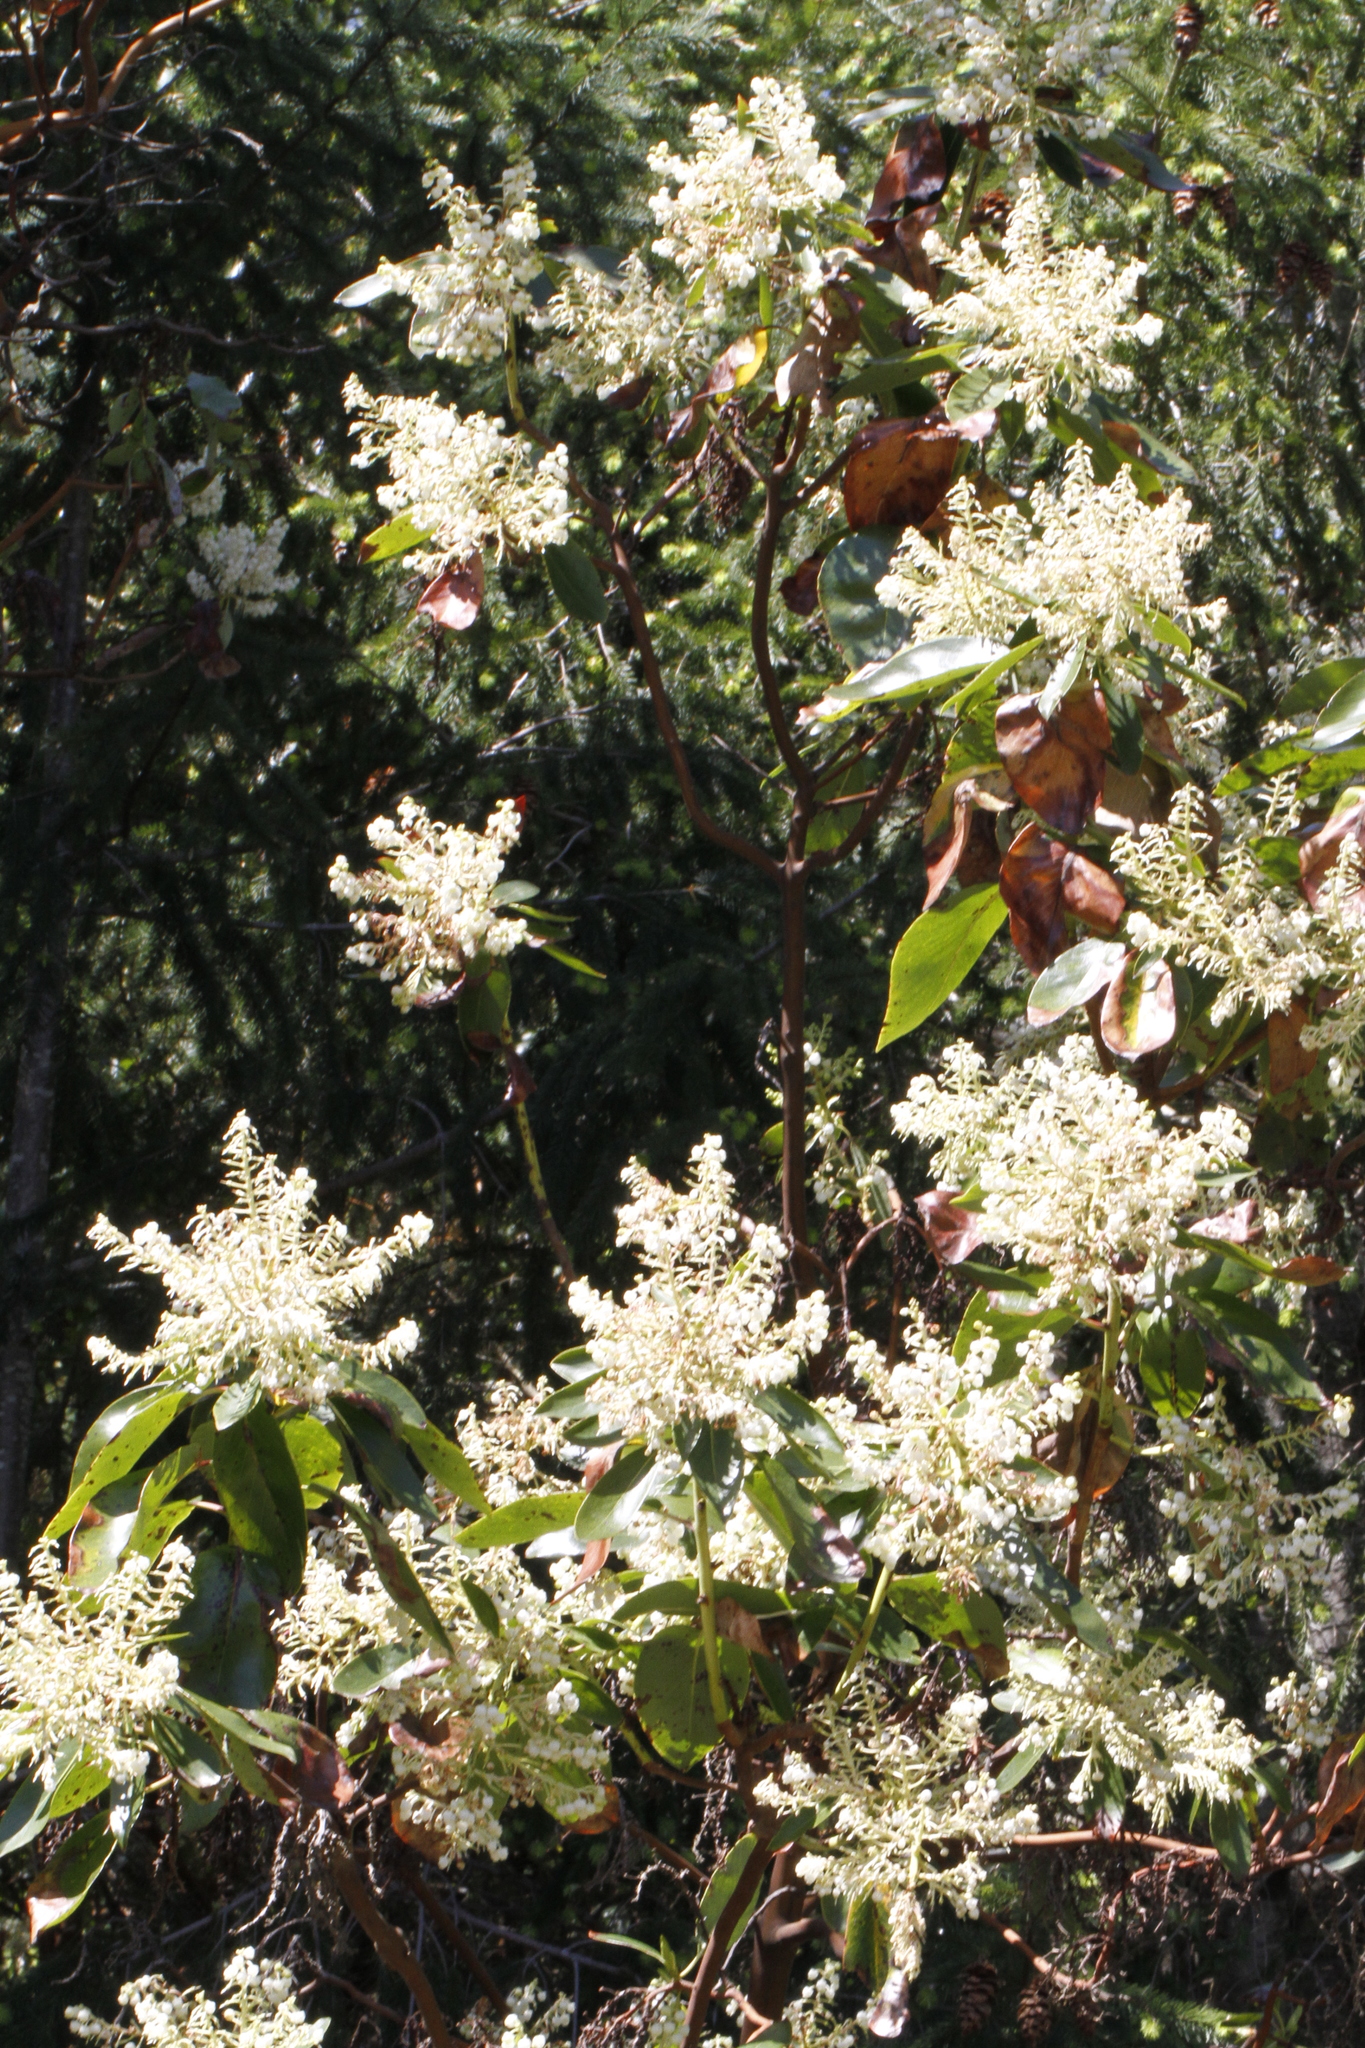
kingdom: Plantae
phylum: Tracheophyta
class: Magnoliopsida
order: Ericales
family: Ericaceae
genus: Arbutus
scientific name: Arbutus menziesii
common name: Pacific madrone
